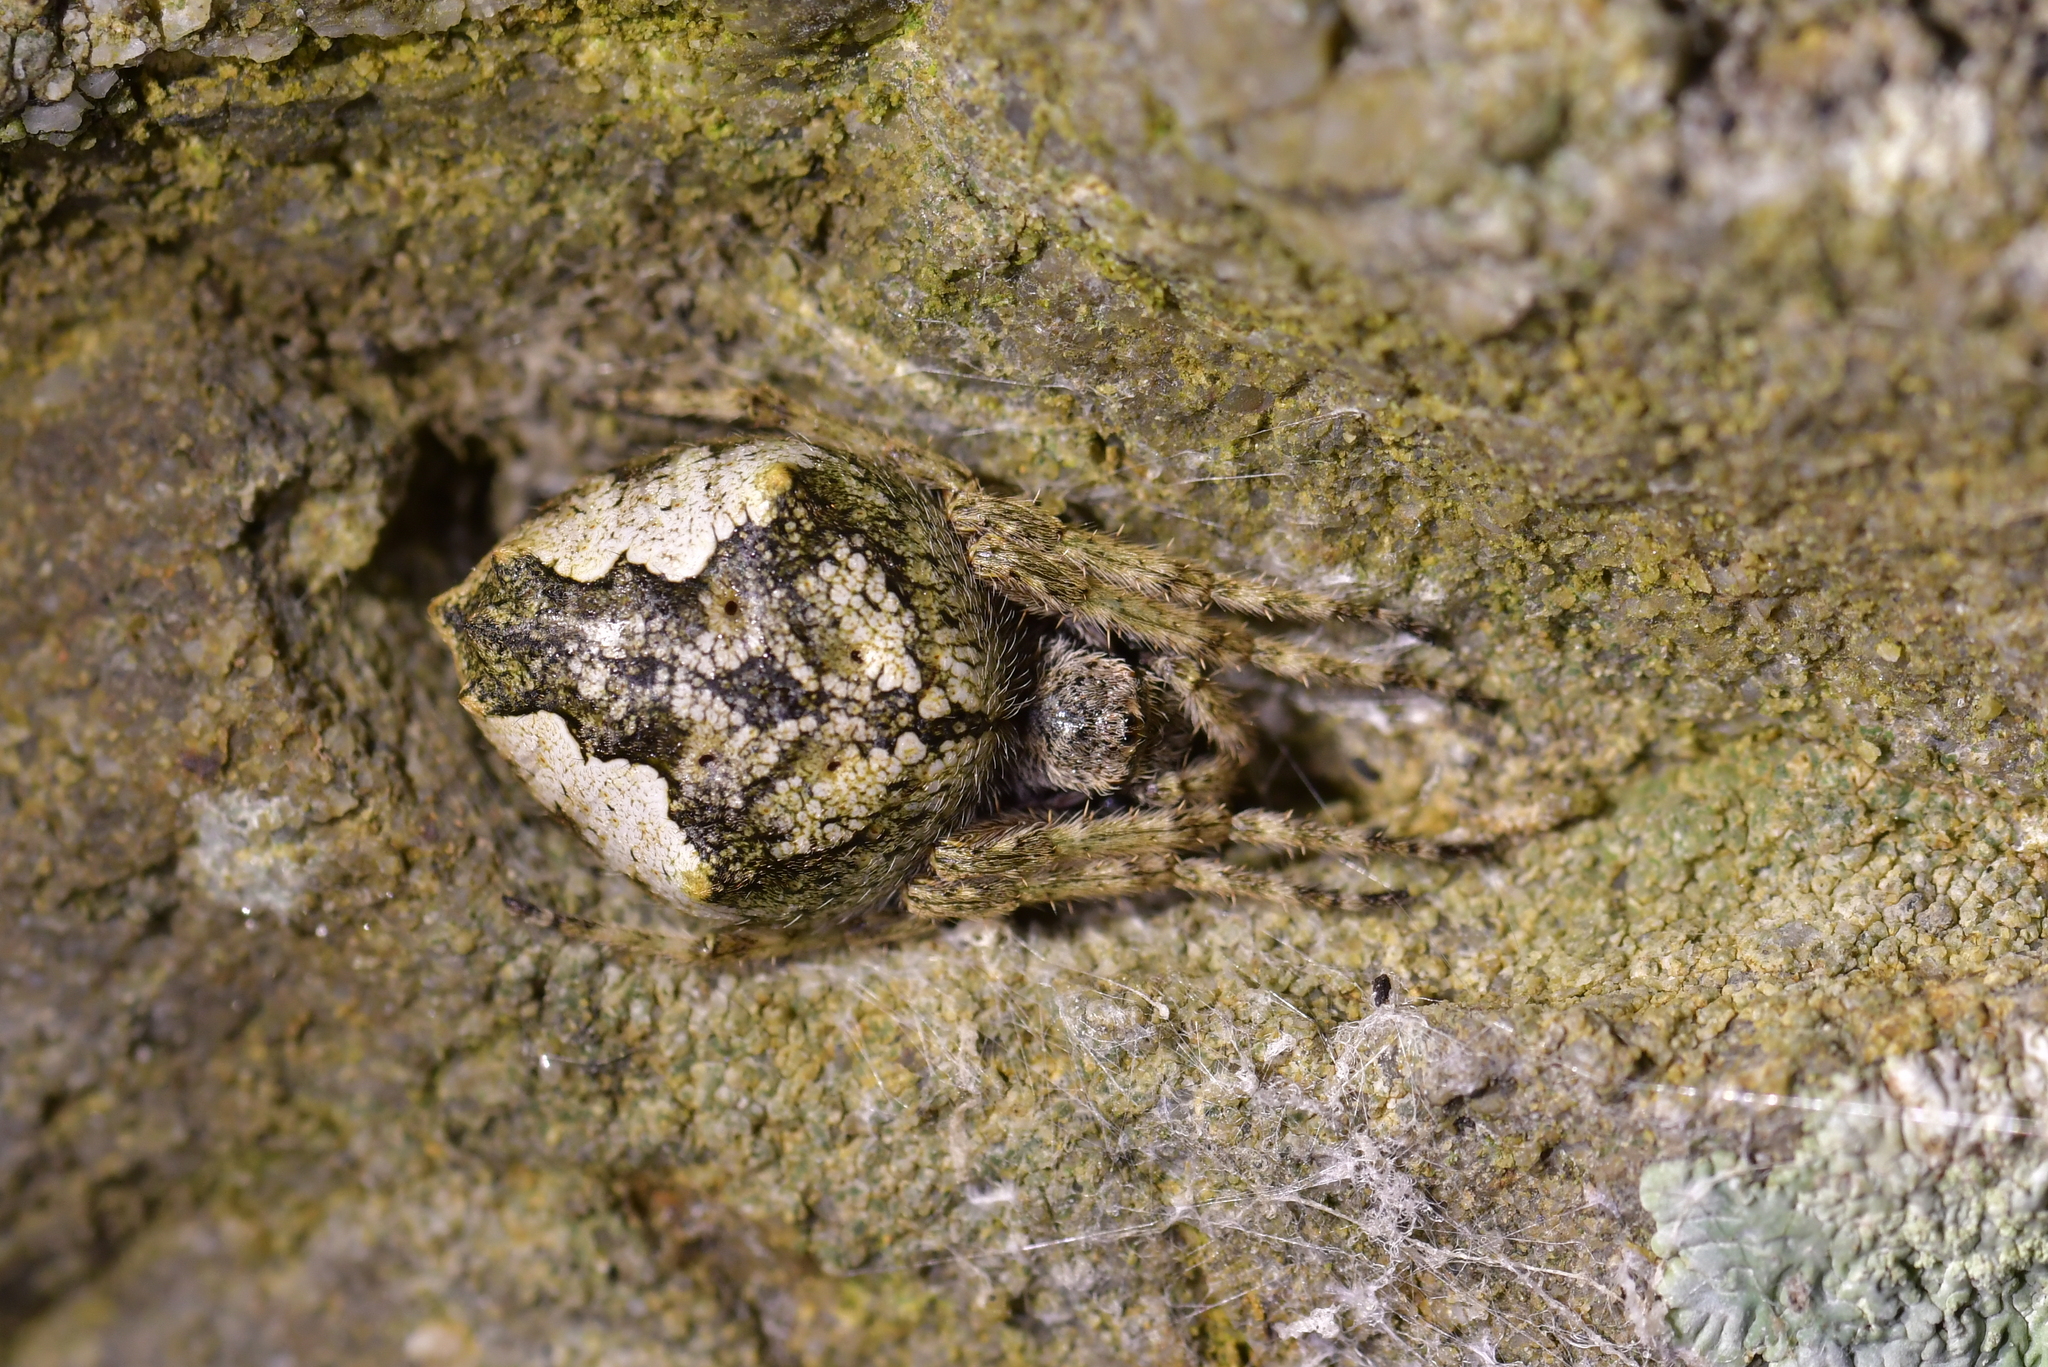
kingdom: Animalia
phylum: Arthropoda
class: Arachnida
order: Araneae
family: Araneidae
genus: Eriophora
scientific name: Eriophora pustulosa
